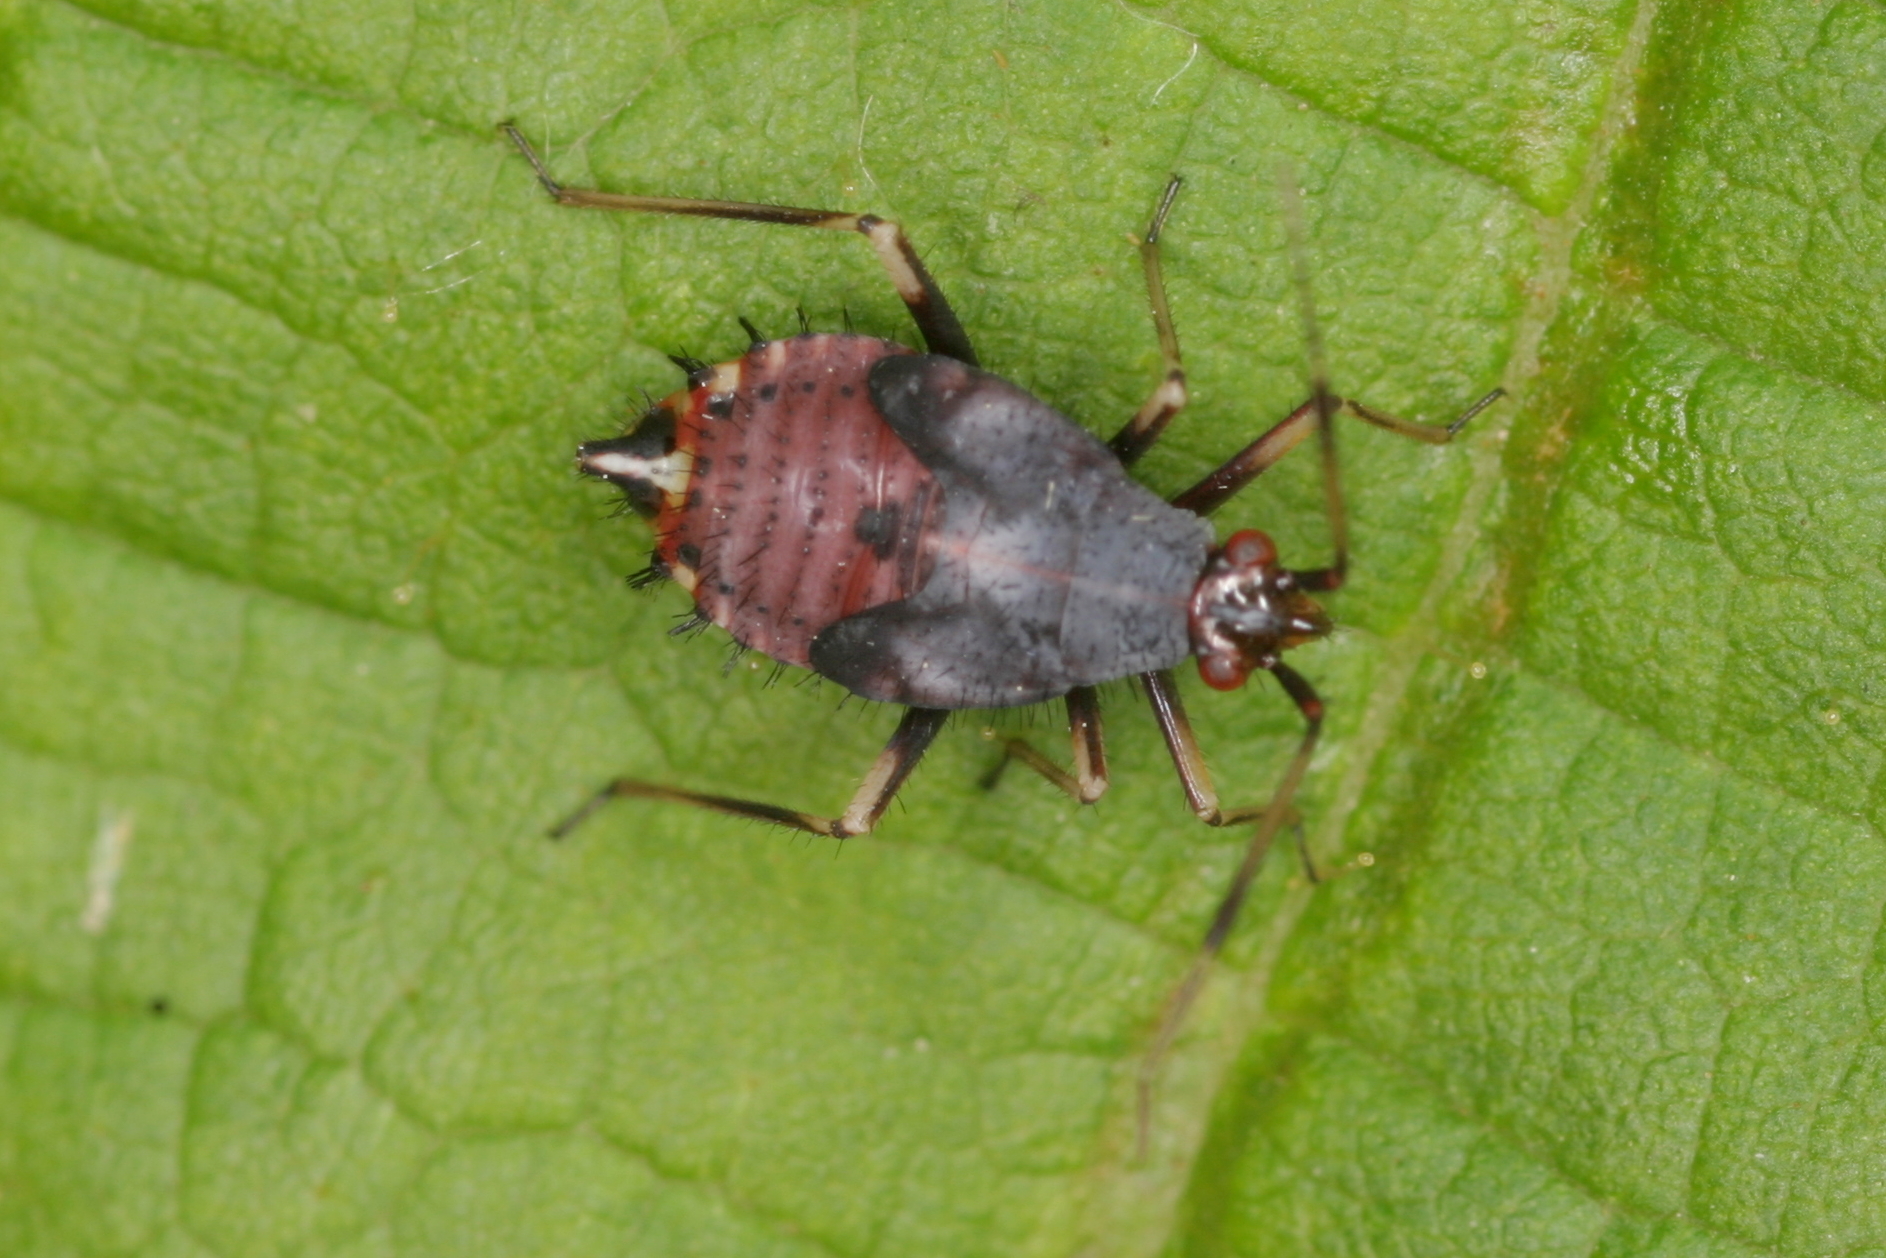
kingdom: Animalia
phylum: Arthropoda
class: Insecta
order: Hemiptera
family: Miridae
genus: Deraeocoris
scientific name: Deraeocoris ruber
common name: Plant bug
